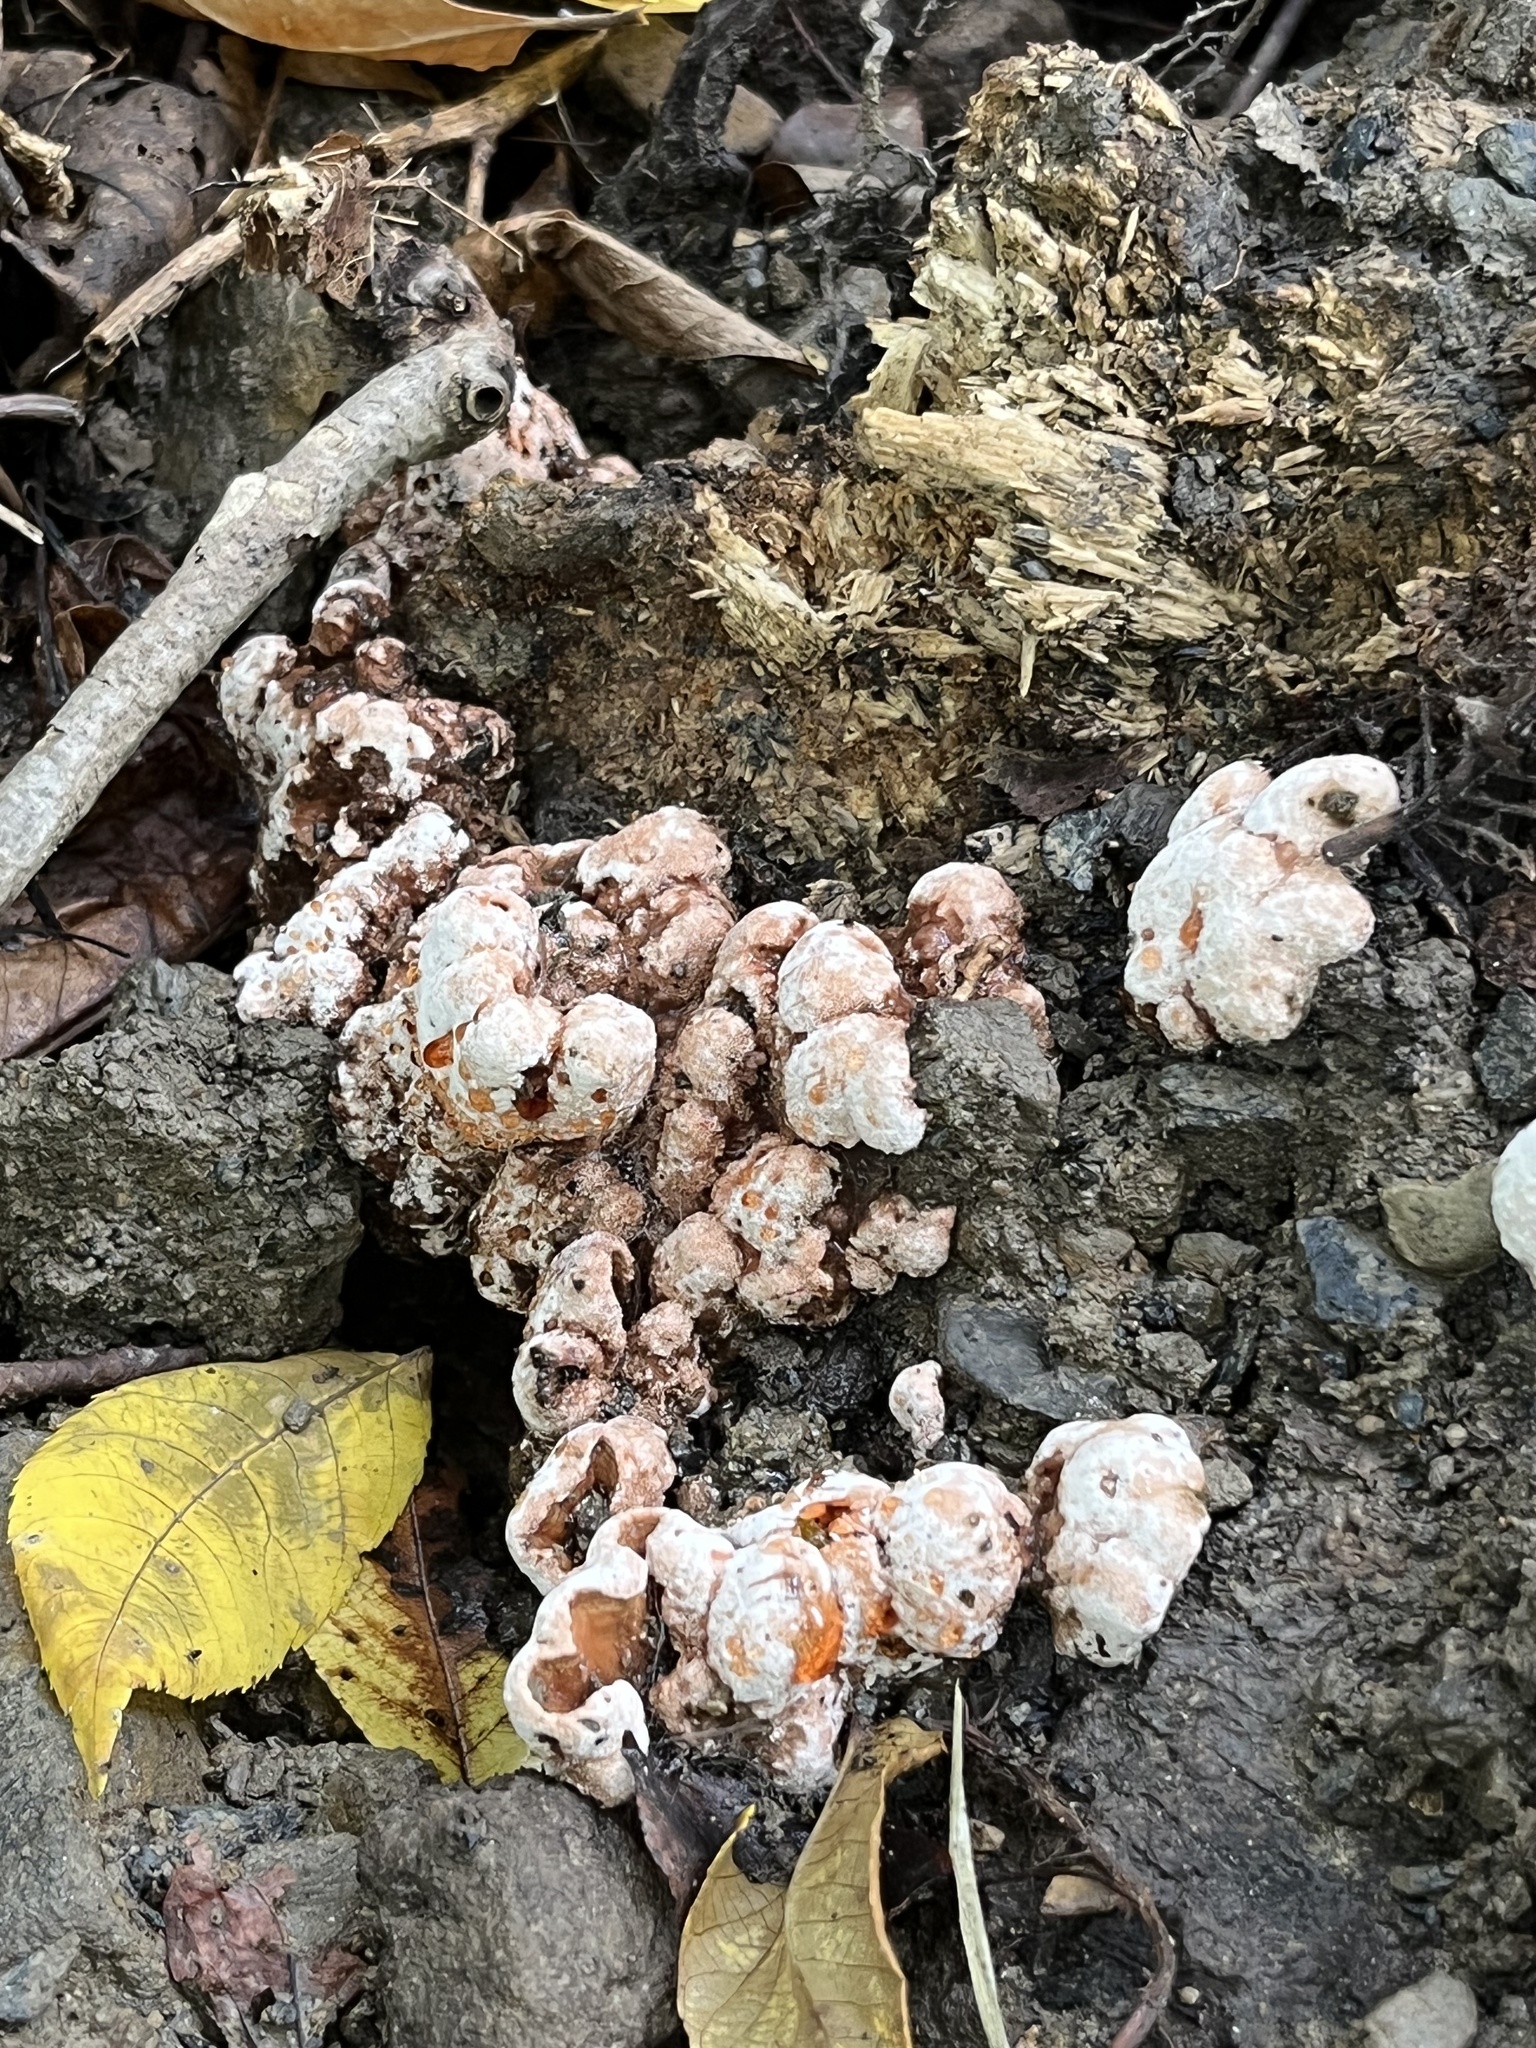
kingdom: Fungi
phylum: Basidiomycota
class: Agaricomycetes
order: Polyporales
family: Podoscyphaceae
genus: Abortiporus
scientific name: Abortiporus biennis
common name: Blushing rosette
